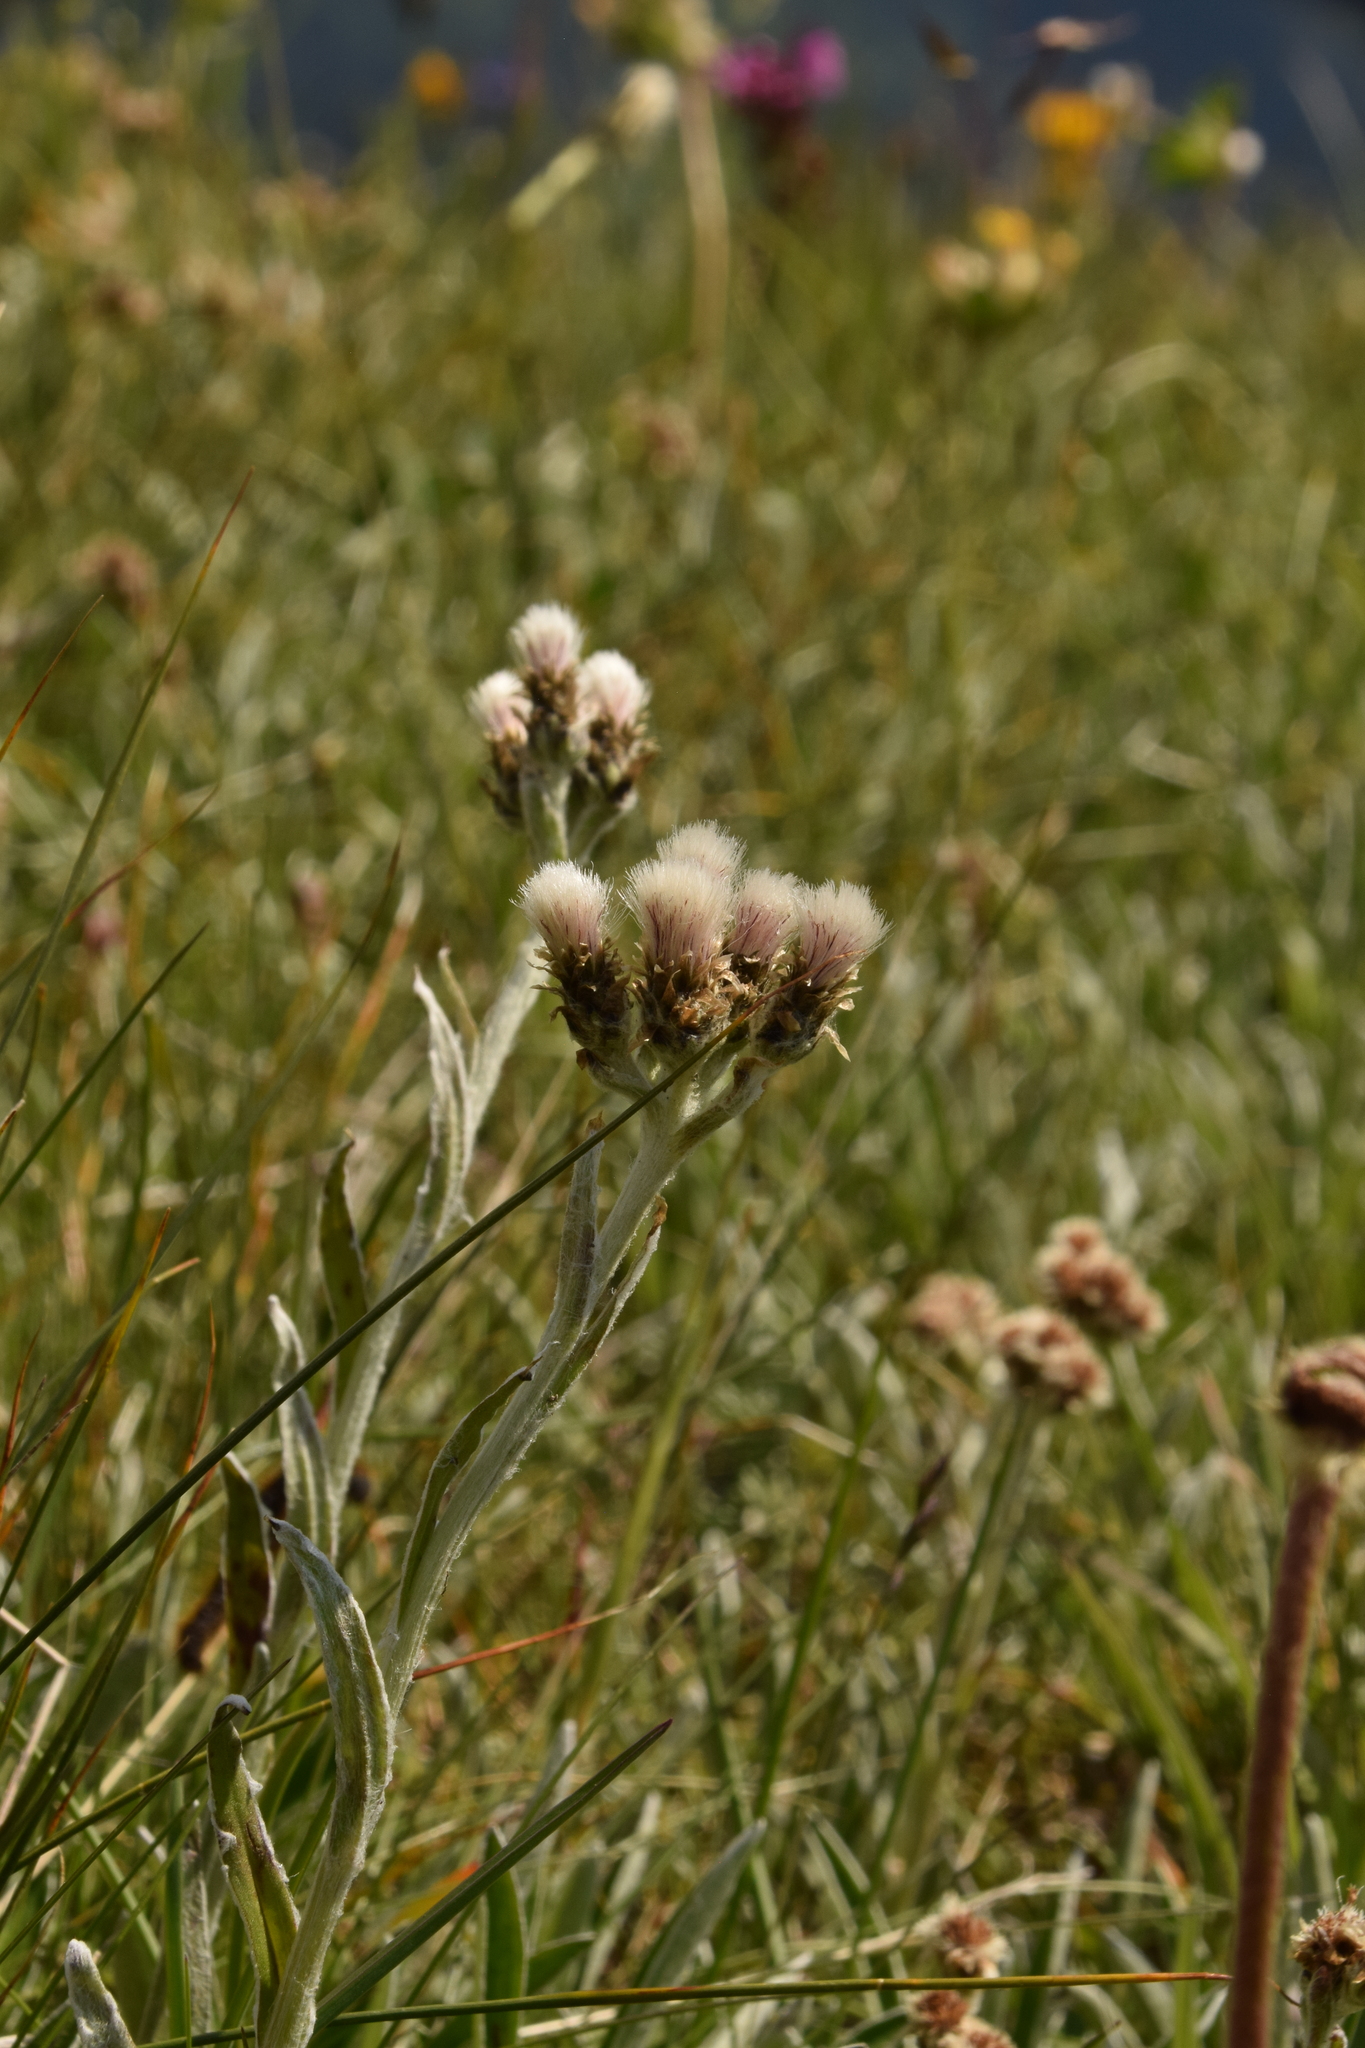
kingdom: Plantae
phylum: Tracheophyta
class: Magnoliopsida
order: Asterales
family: Asteraceae
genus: Antennaria
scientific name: Antennaria carpatica
